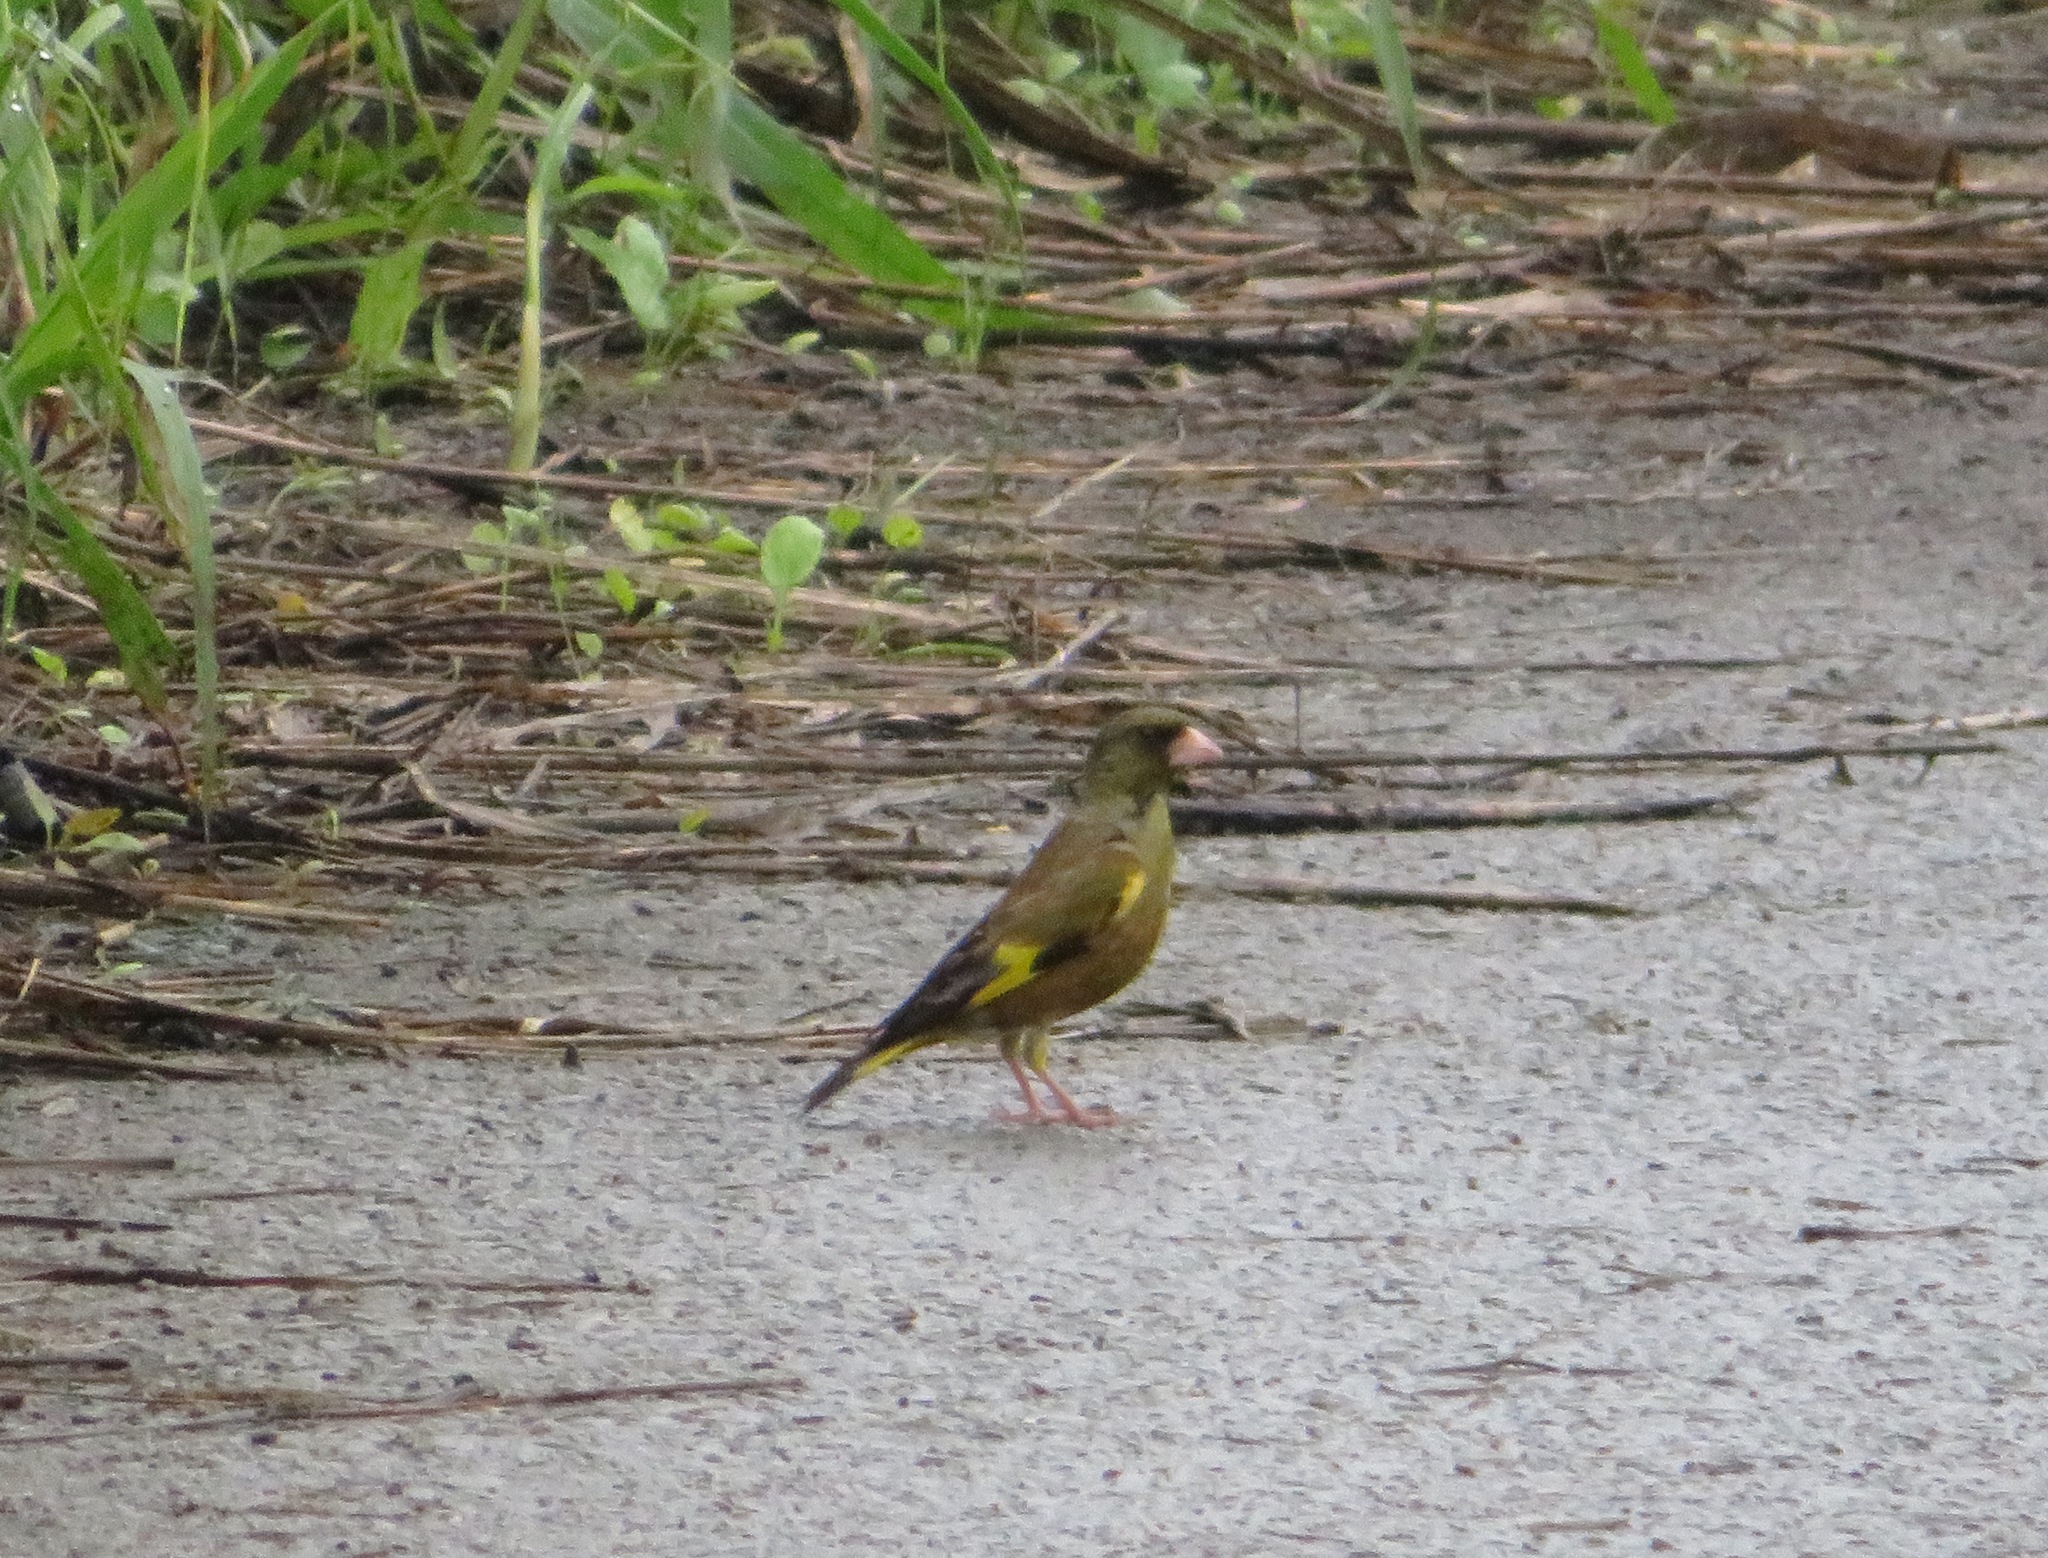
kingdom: Plantae
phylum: Tracheophyta
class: Liliopsida
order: Poales
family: Poaceae
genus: Chloris
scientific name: Chloris sinica
